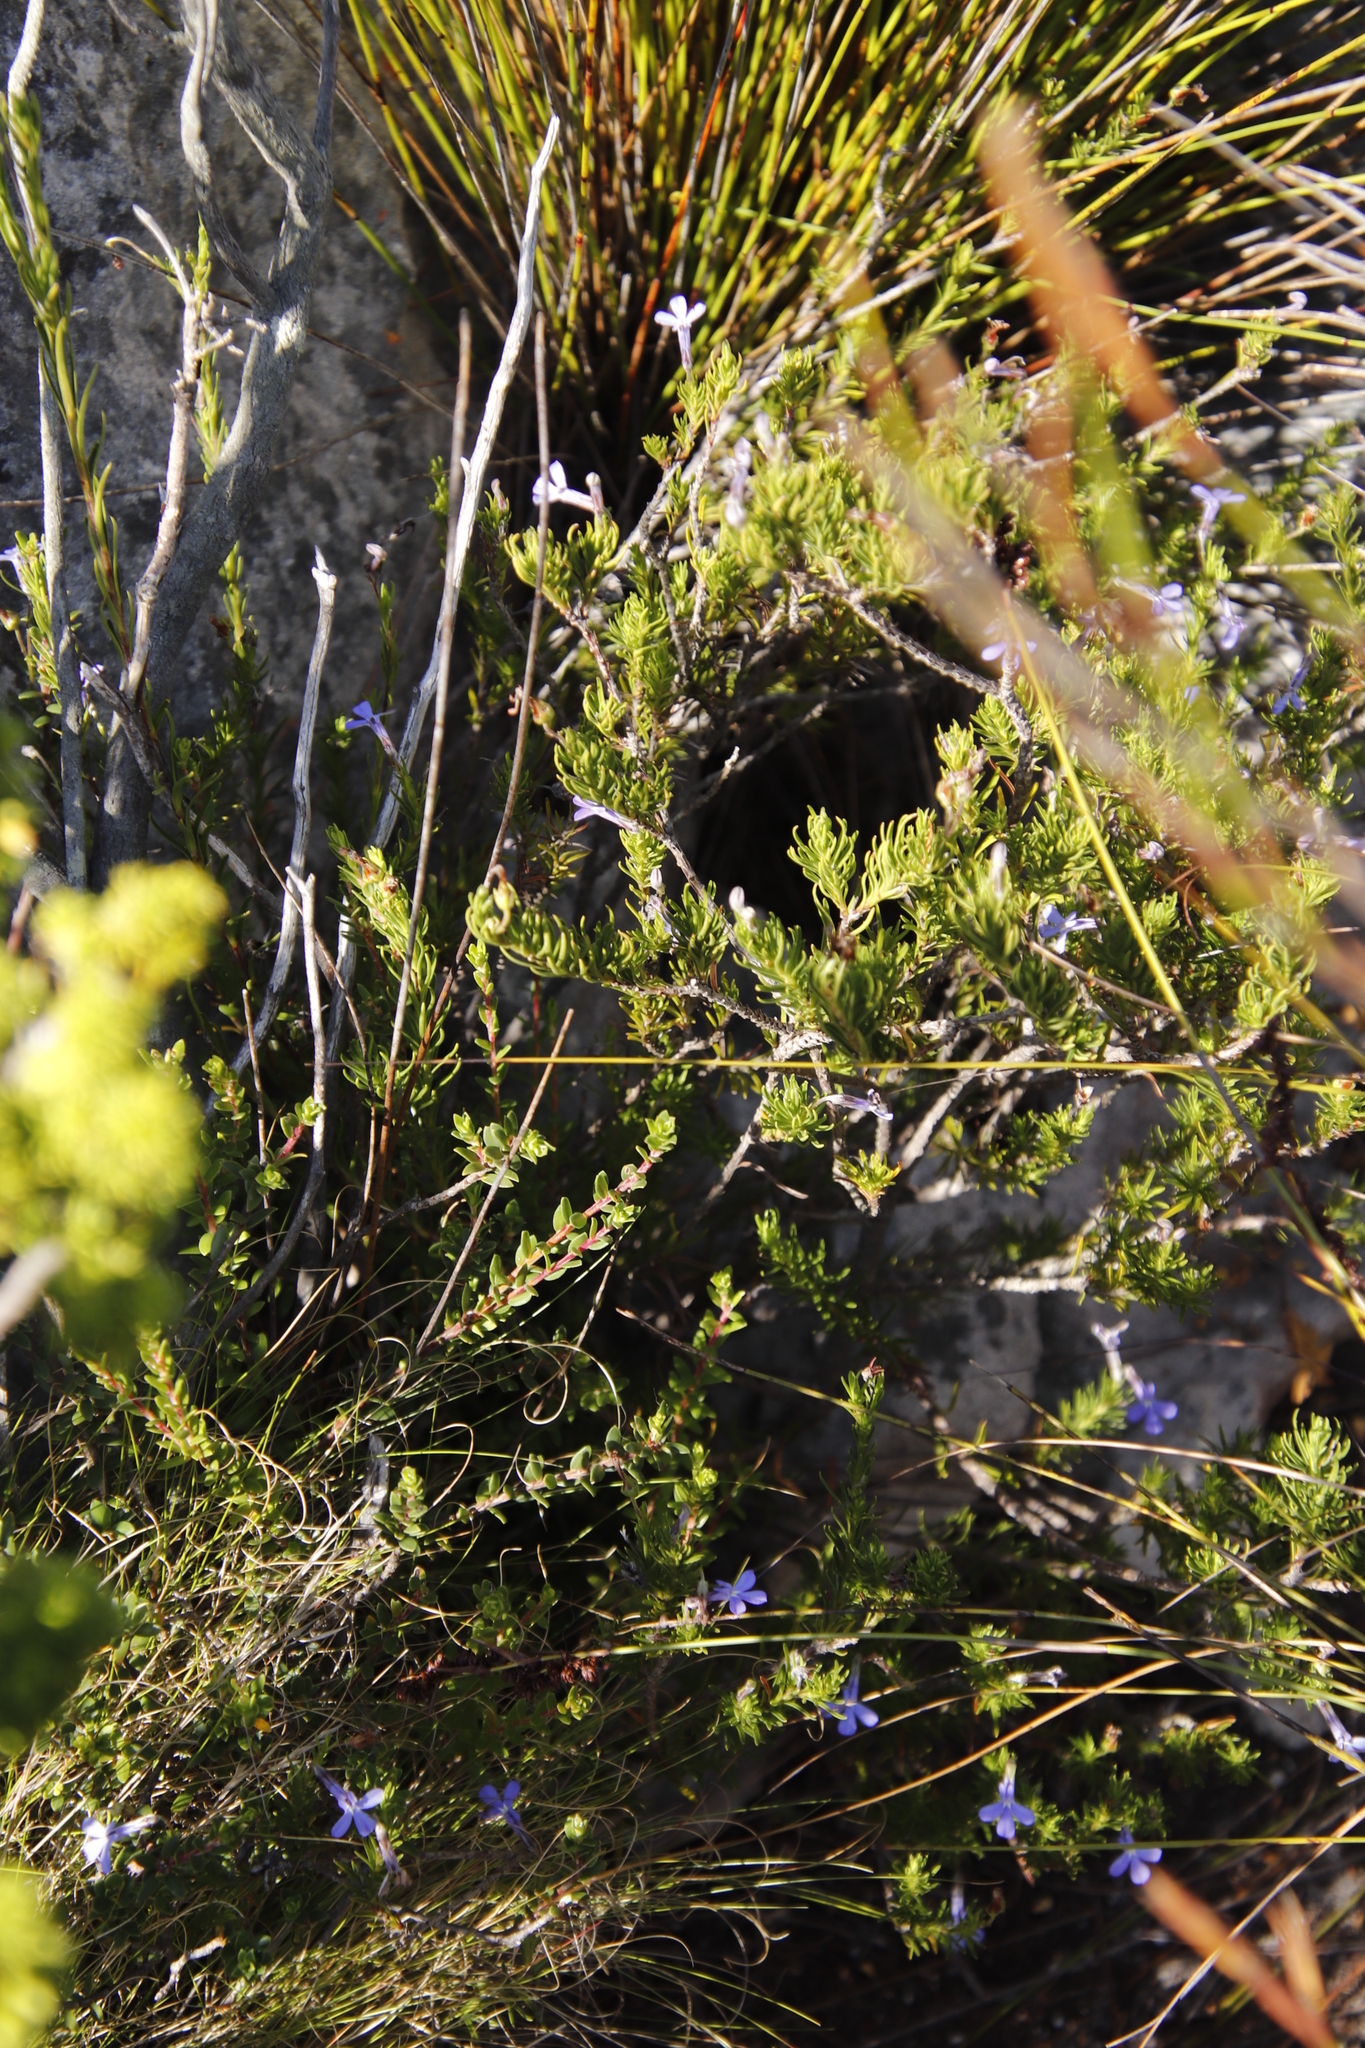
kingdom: Plantae
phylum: Tracheophyta
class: Magnoliopsida
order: Asterales
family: Campanulaceae
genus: Lobelia
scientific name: Lobelia pinifolia
